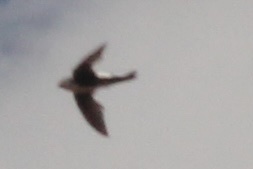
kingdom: Animalia
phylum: Chordata
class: Aves
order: Apodiformes
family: Apodidae
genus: Aeronautes
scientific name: Aeronautes saxatalis
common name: White-throated swift
